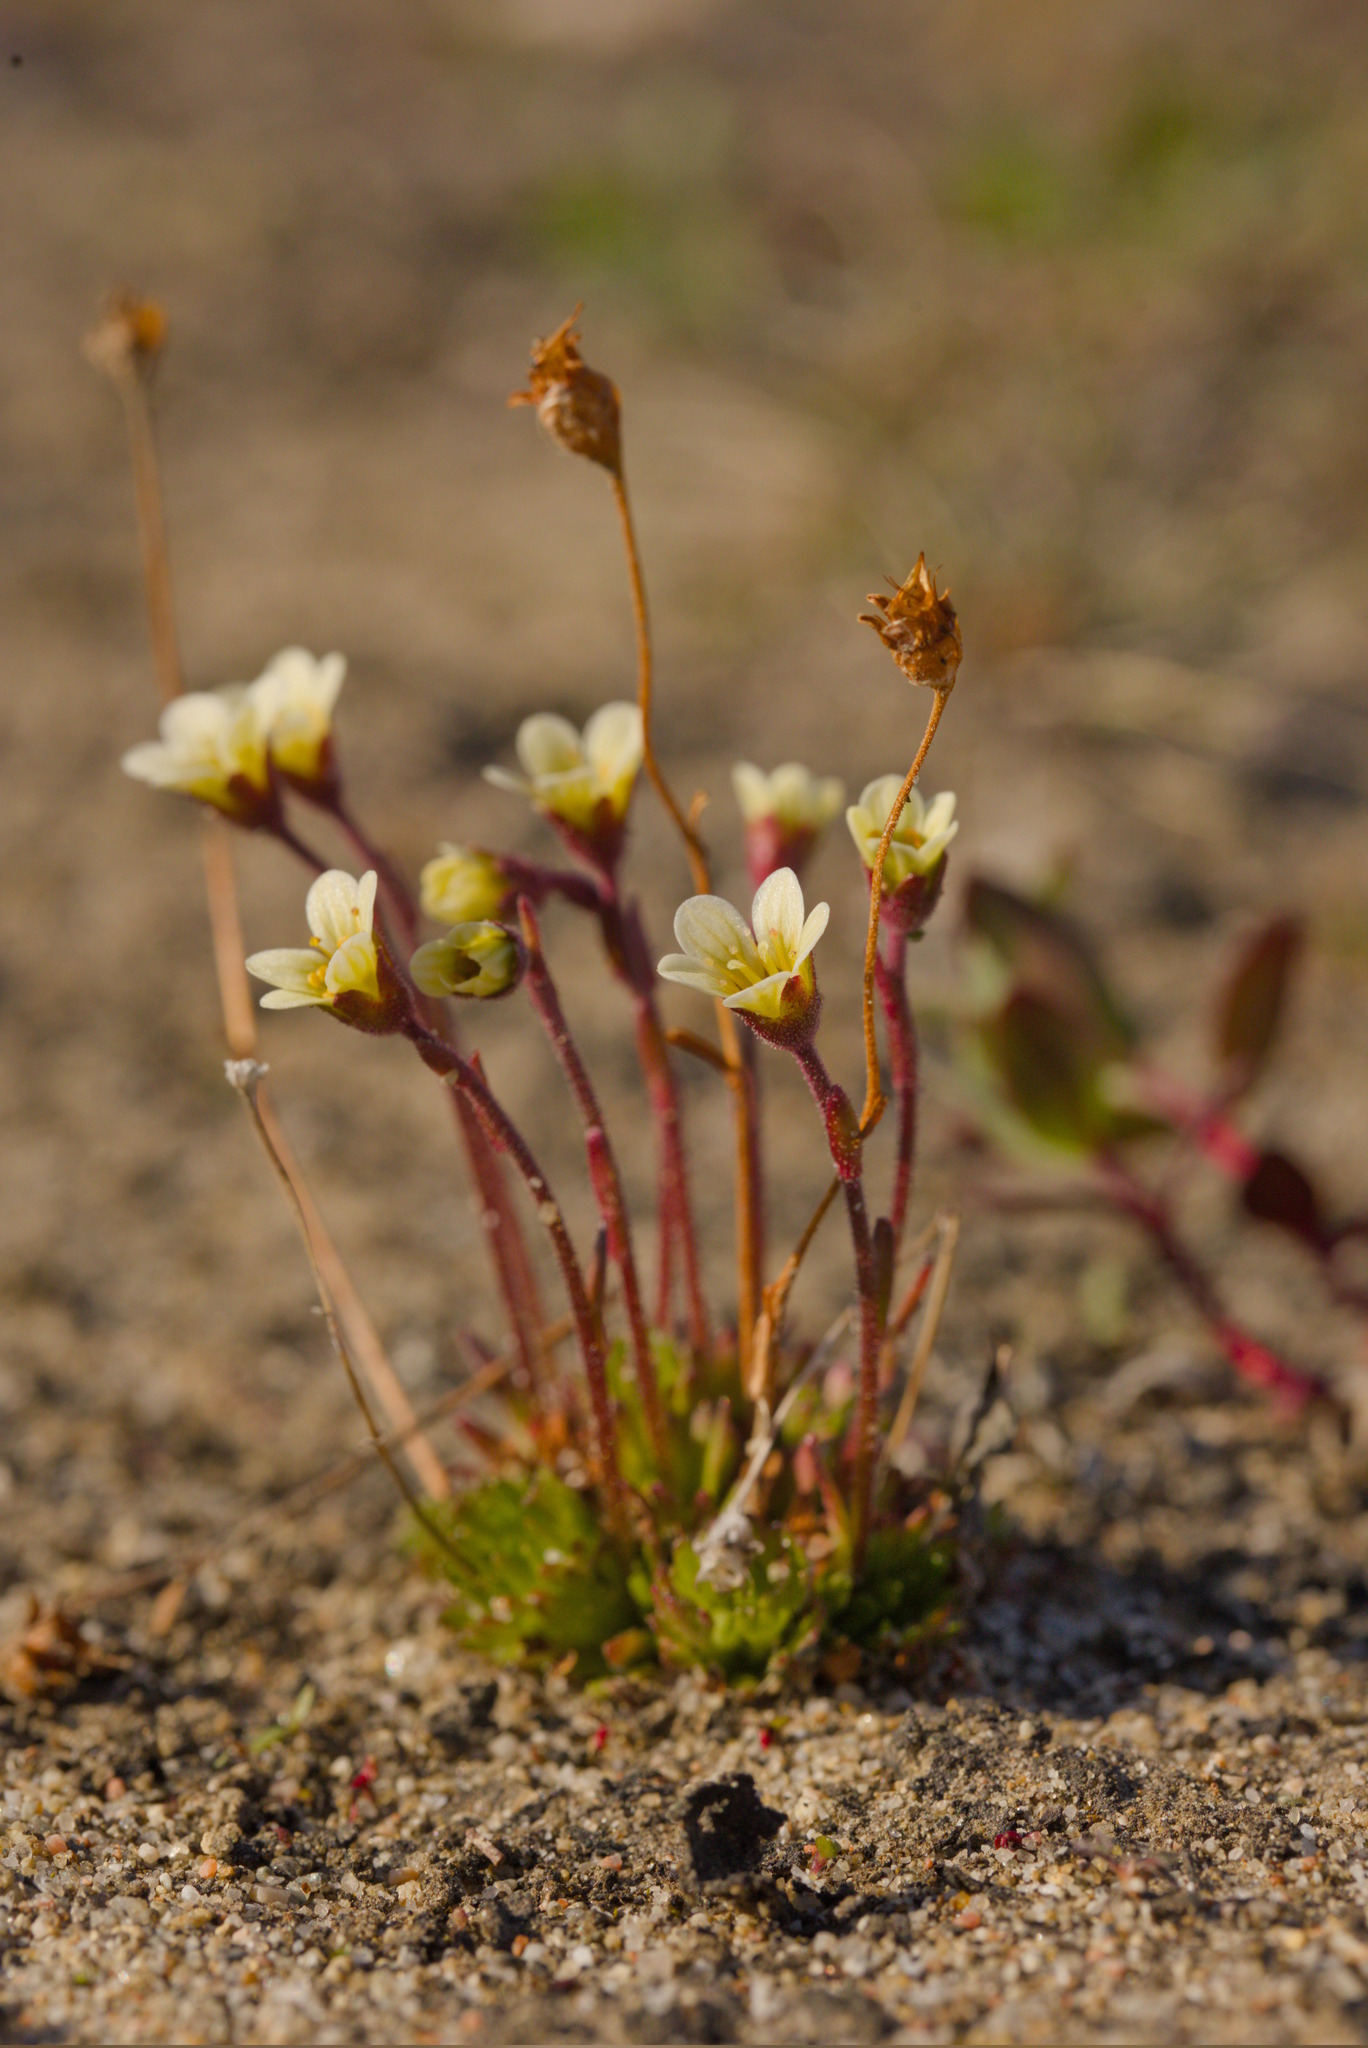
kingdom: Plantae
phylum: Tracheophyta
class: Magnoliopsida
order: Saxifragales
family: Saxifragaceae
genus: Saxifraga
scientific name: Saxifraga cespitosa
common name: Tufted saxifrage
